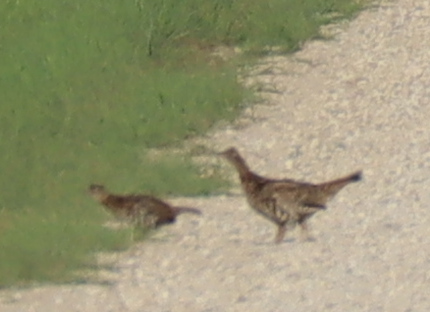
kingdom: Animalia
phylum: Chordata
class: Aves
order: Galliformes
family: Phasianidae
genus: Bonasa
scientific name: Bonasa umbellus
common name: Ruffed grouse
